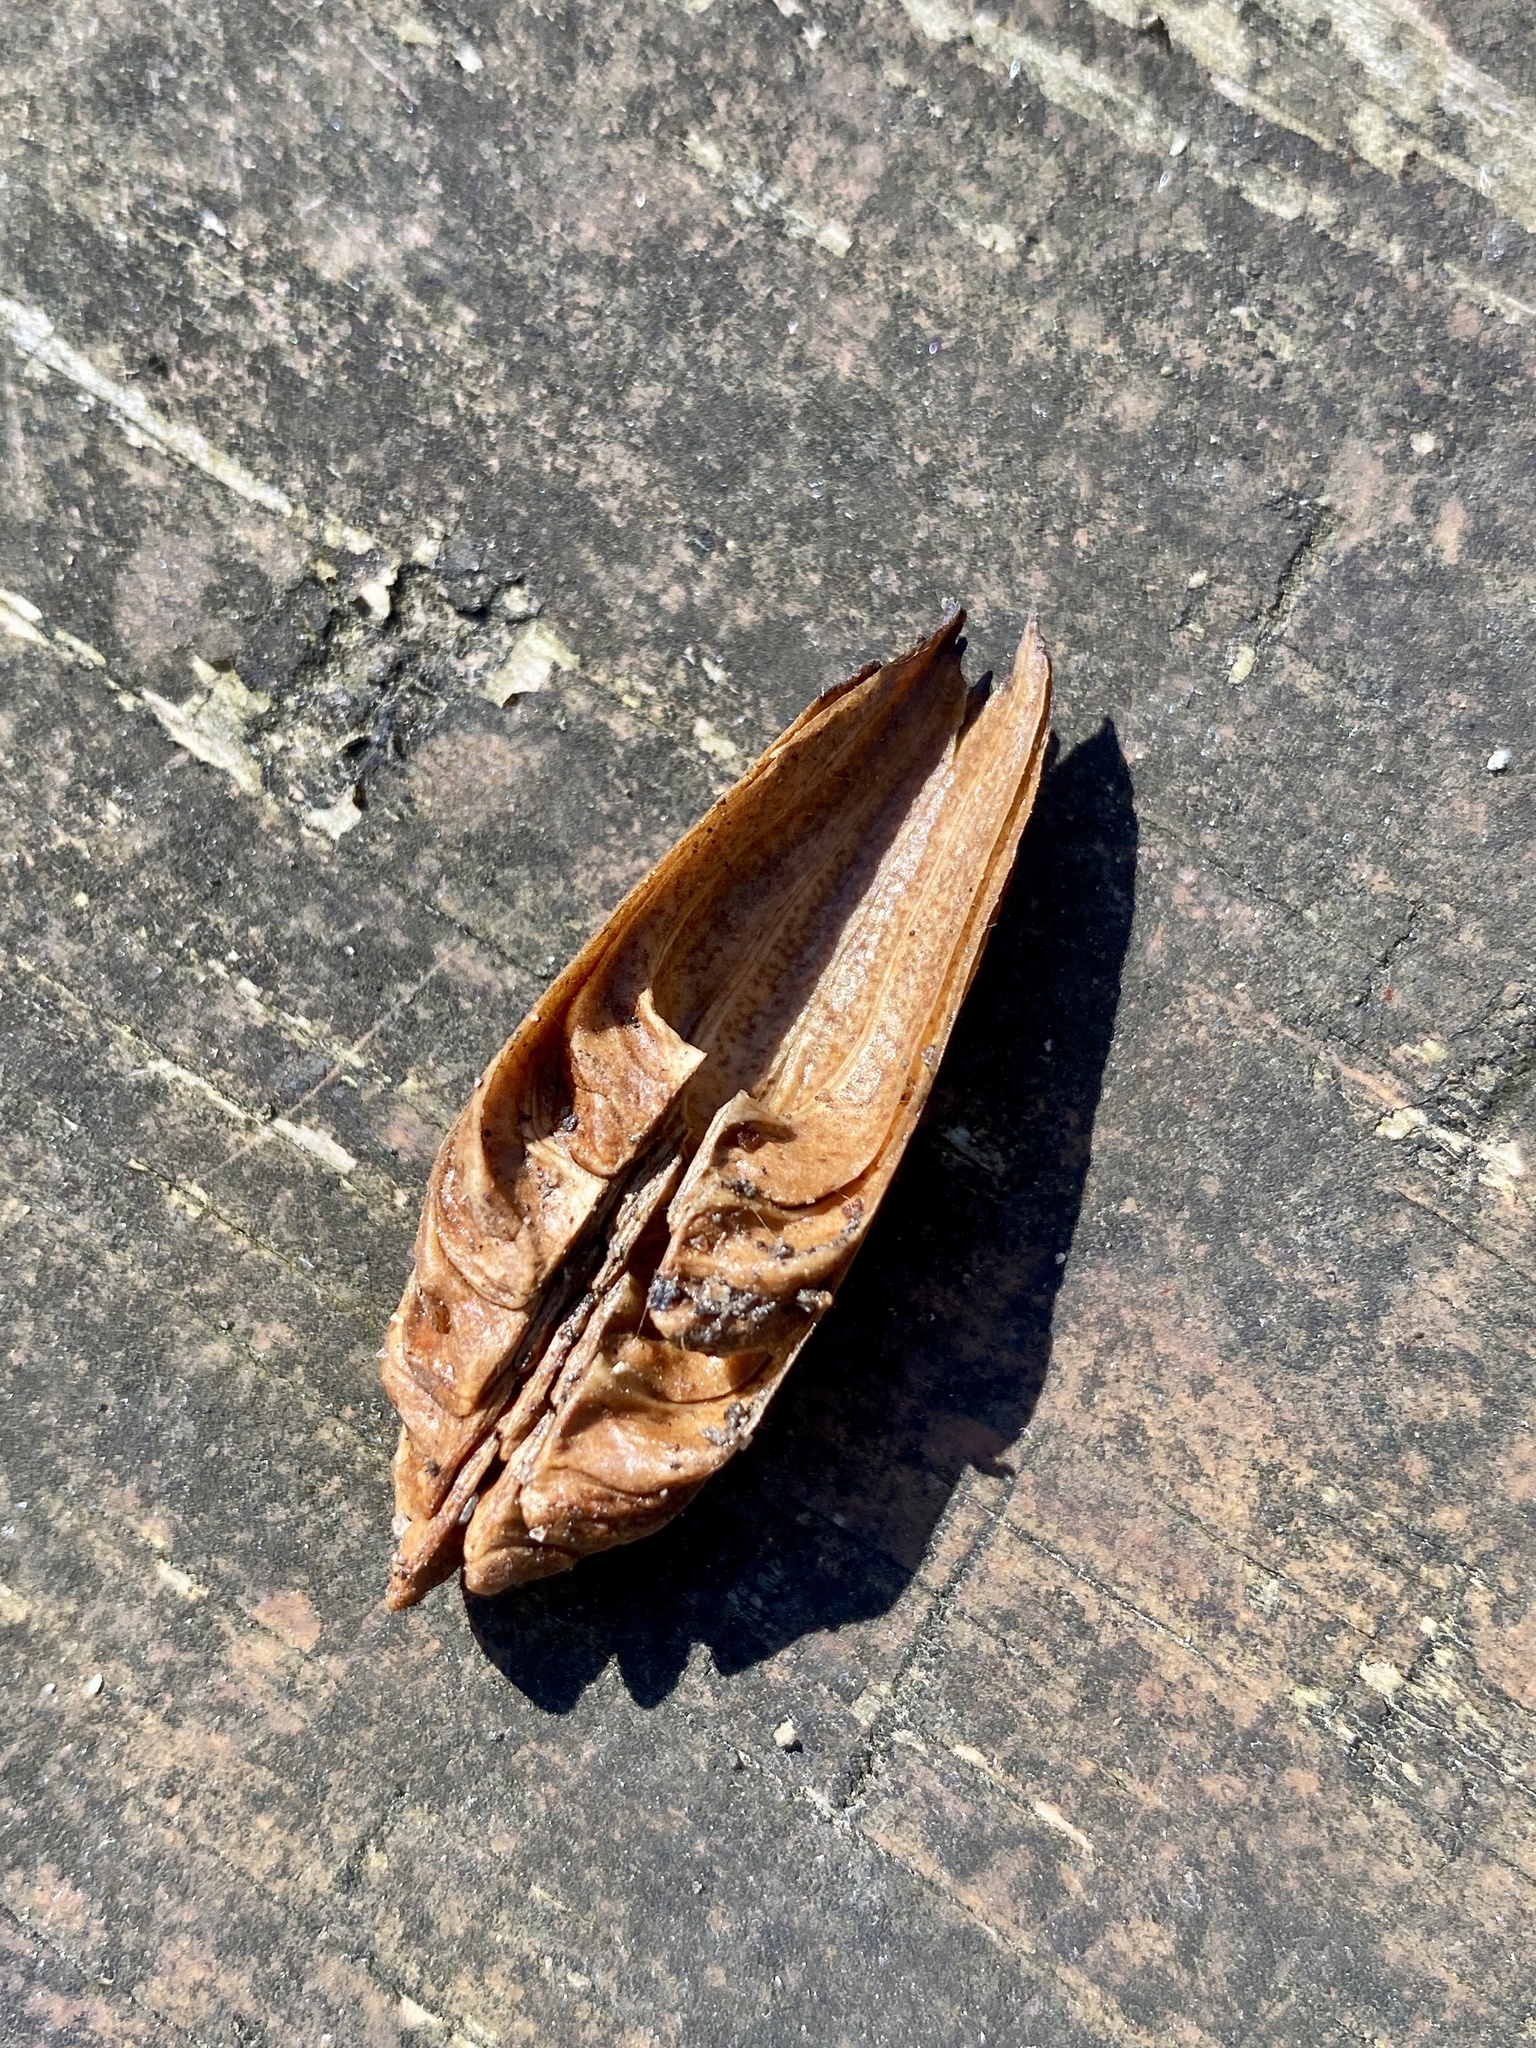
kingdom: Plantae
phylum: Tracheophyta
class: Magnoliopsida
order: Magnoliales
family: Magnoliaceae
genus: Liriodendron
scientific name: Liriodendron tulipifera
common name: Tulip tree
